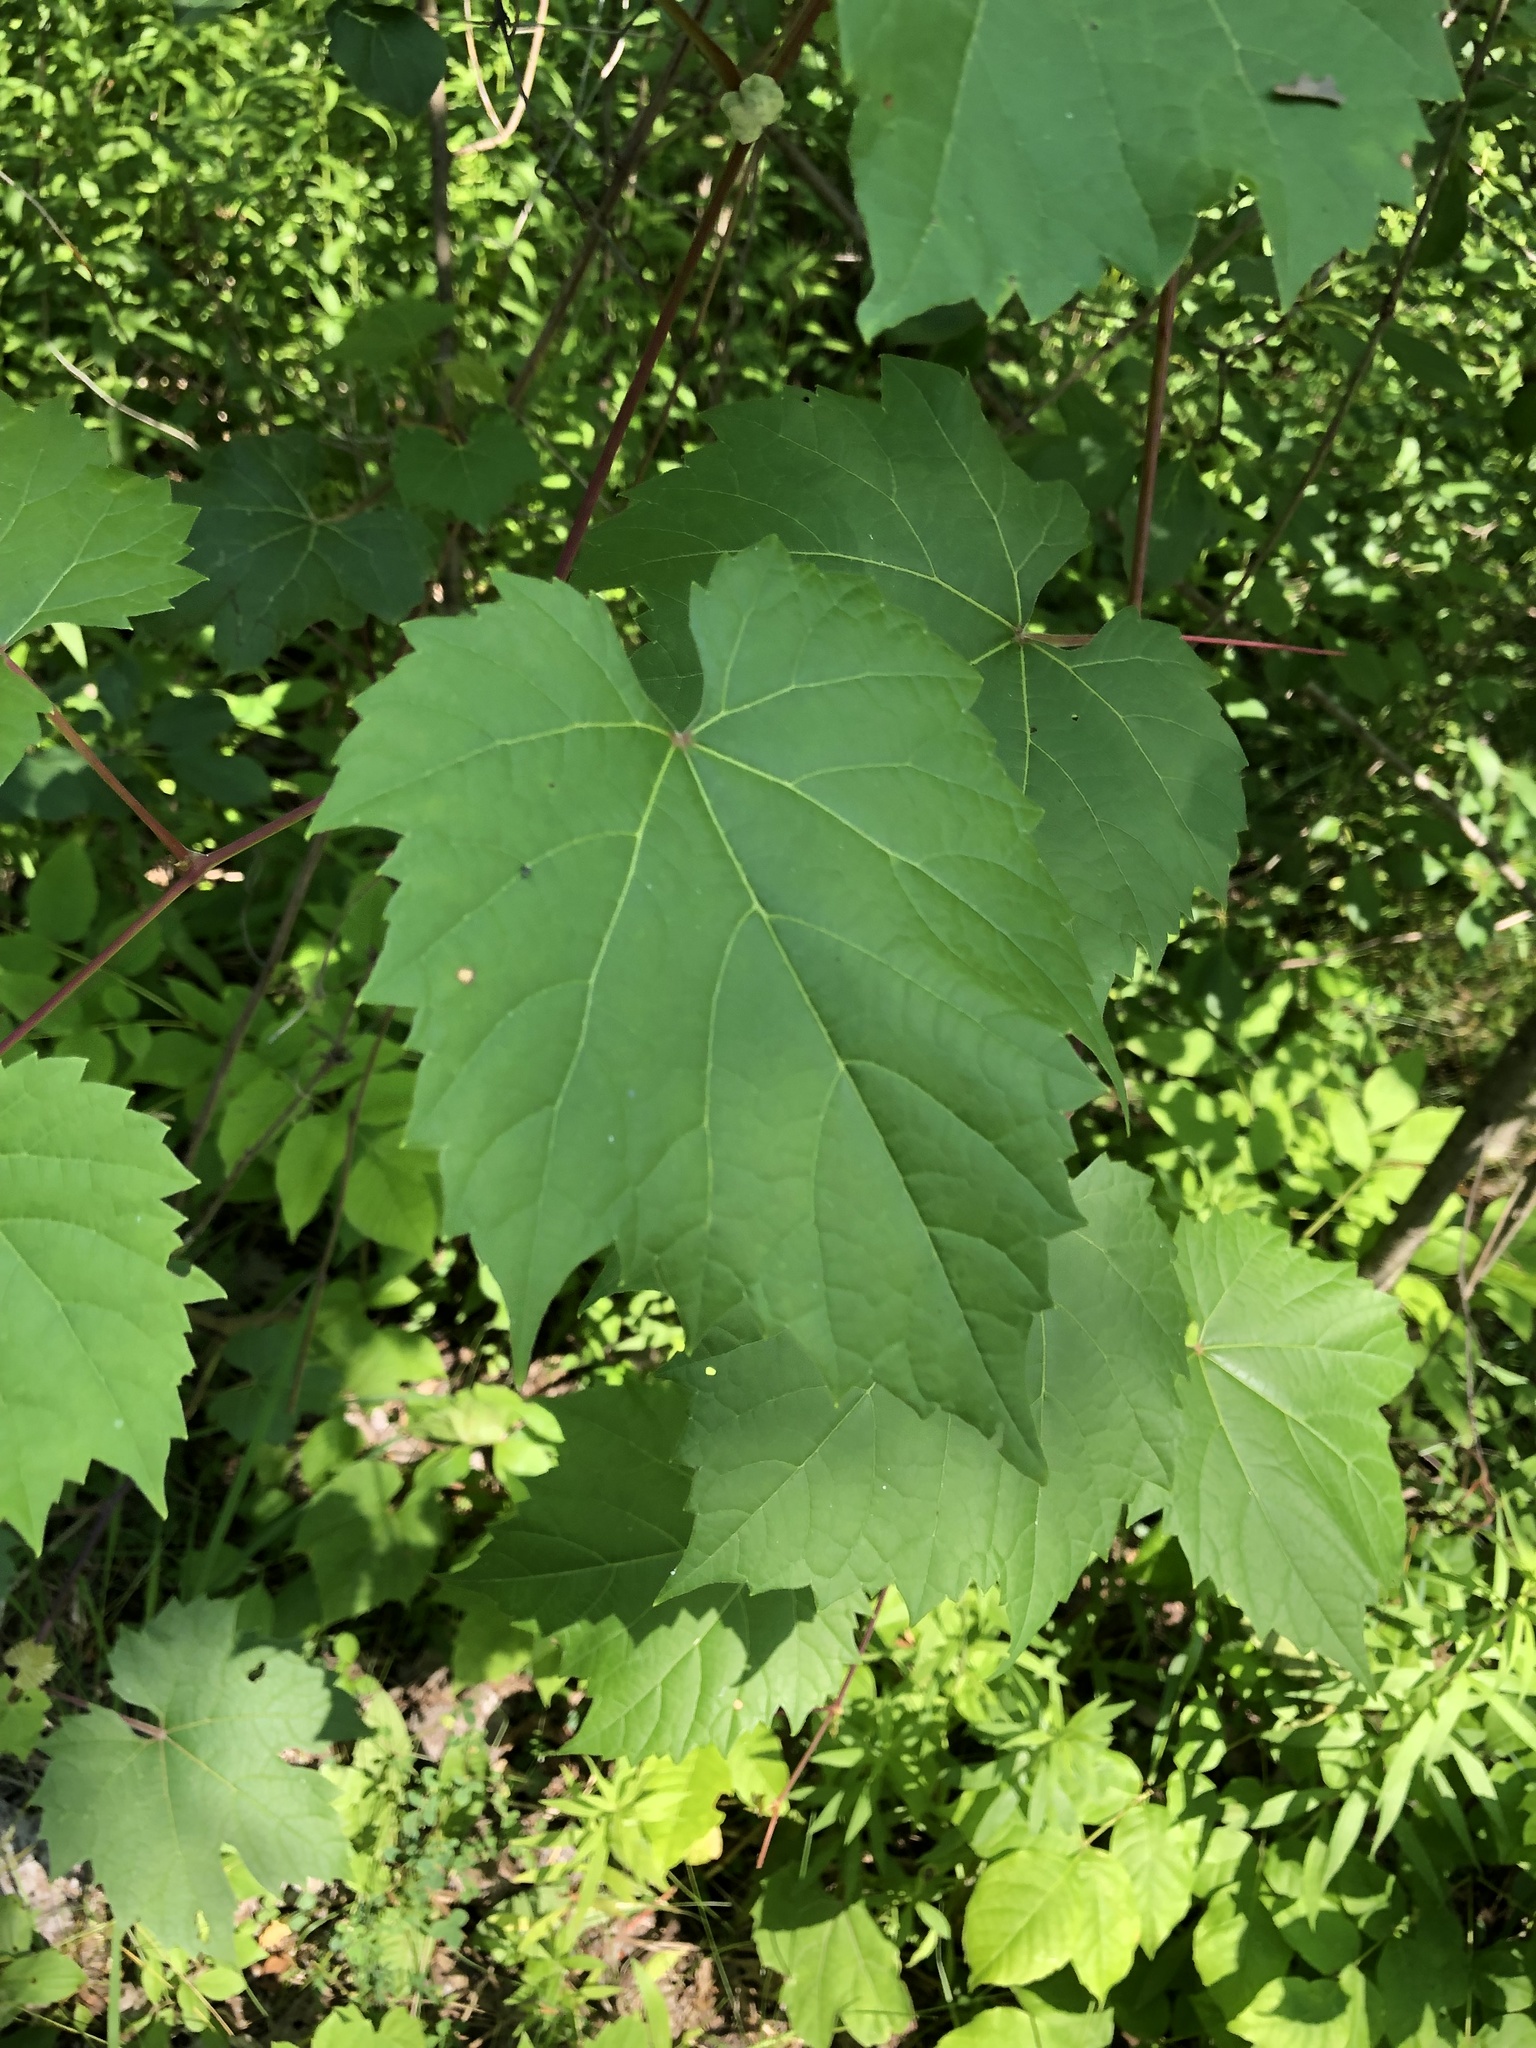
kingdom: Plantae
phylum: Tracheophyta
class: Magnoliopsida
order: Vitales
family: Vitaceae
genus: Vitis
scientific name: Vitis riparia
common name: Frost grape
